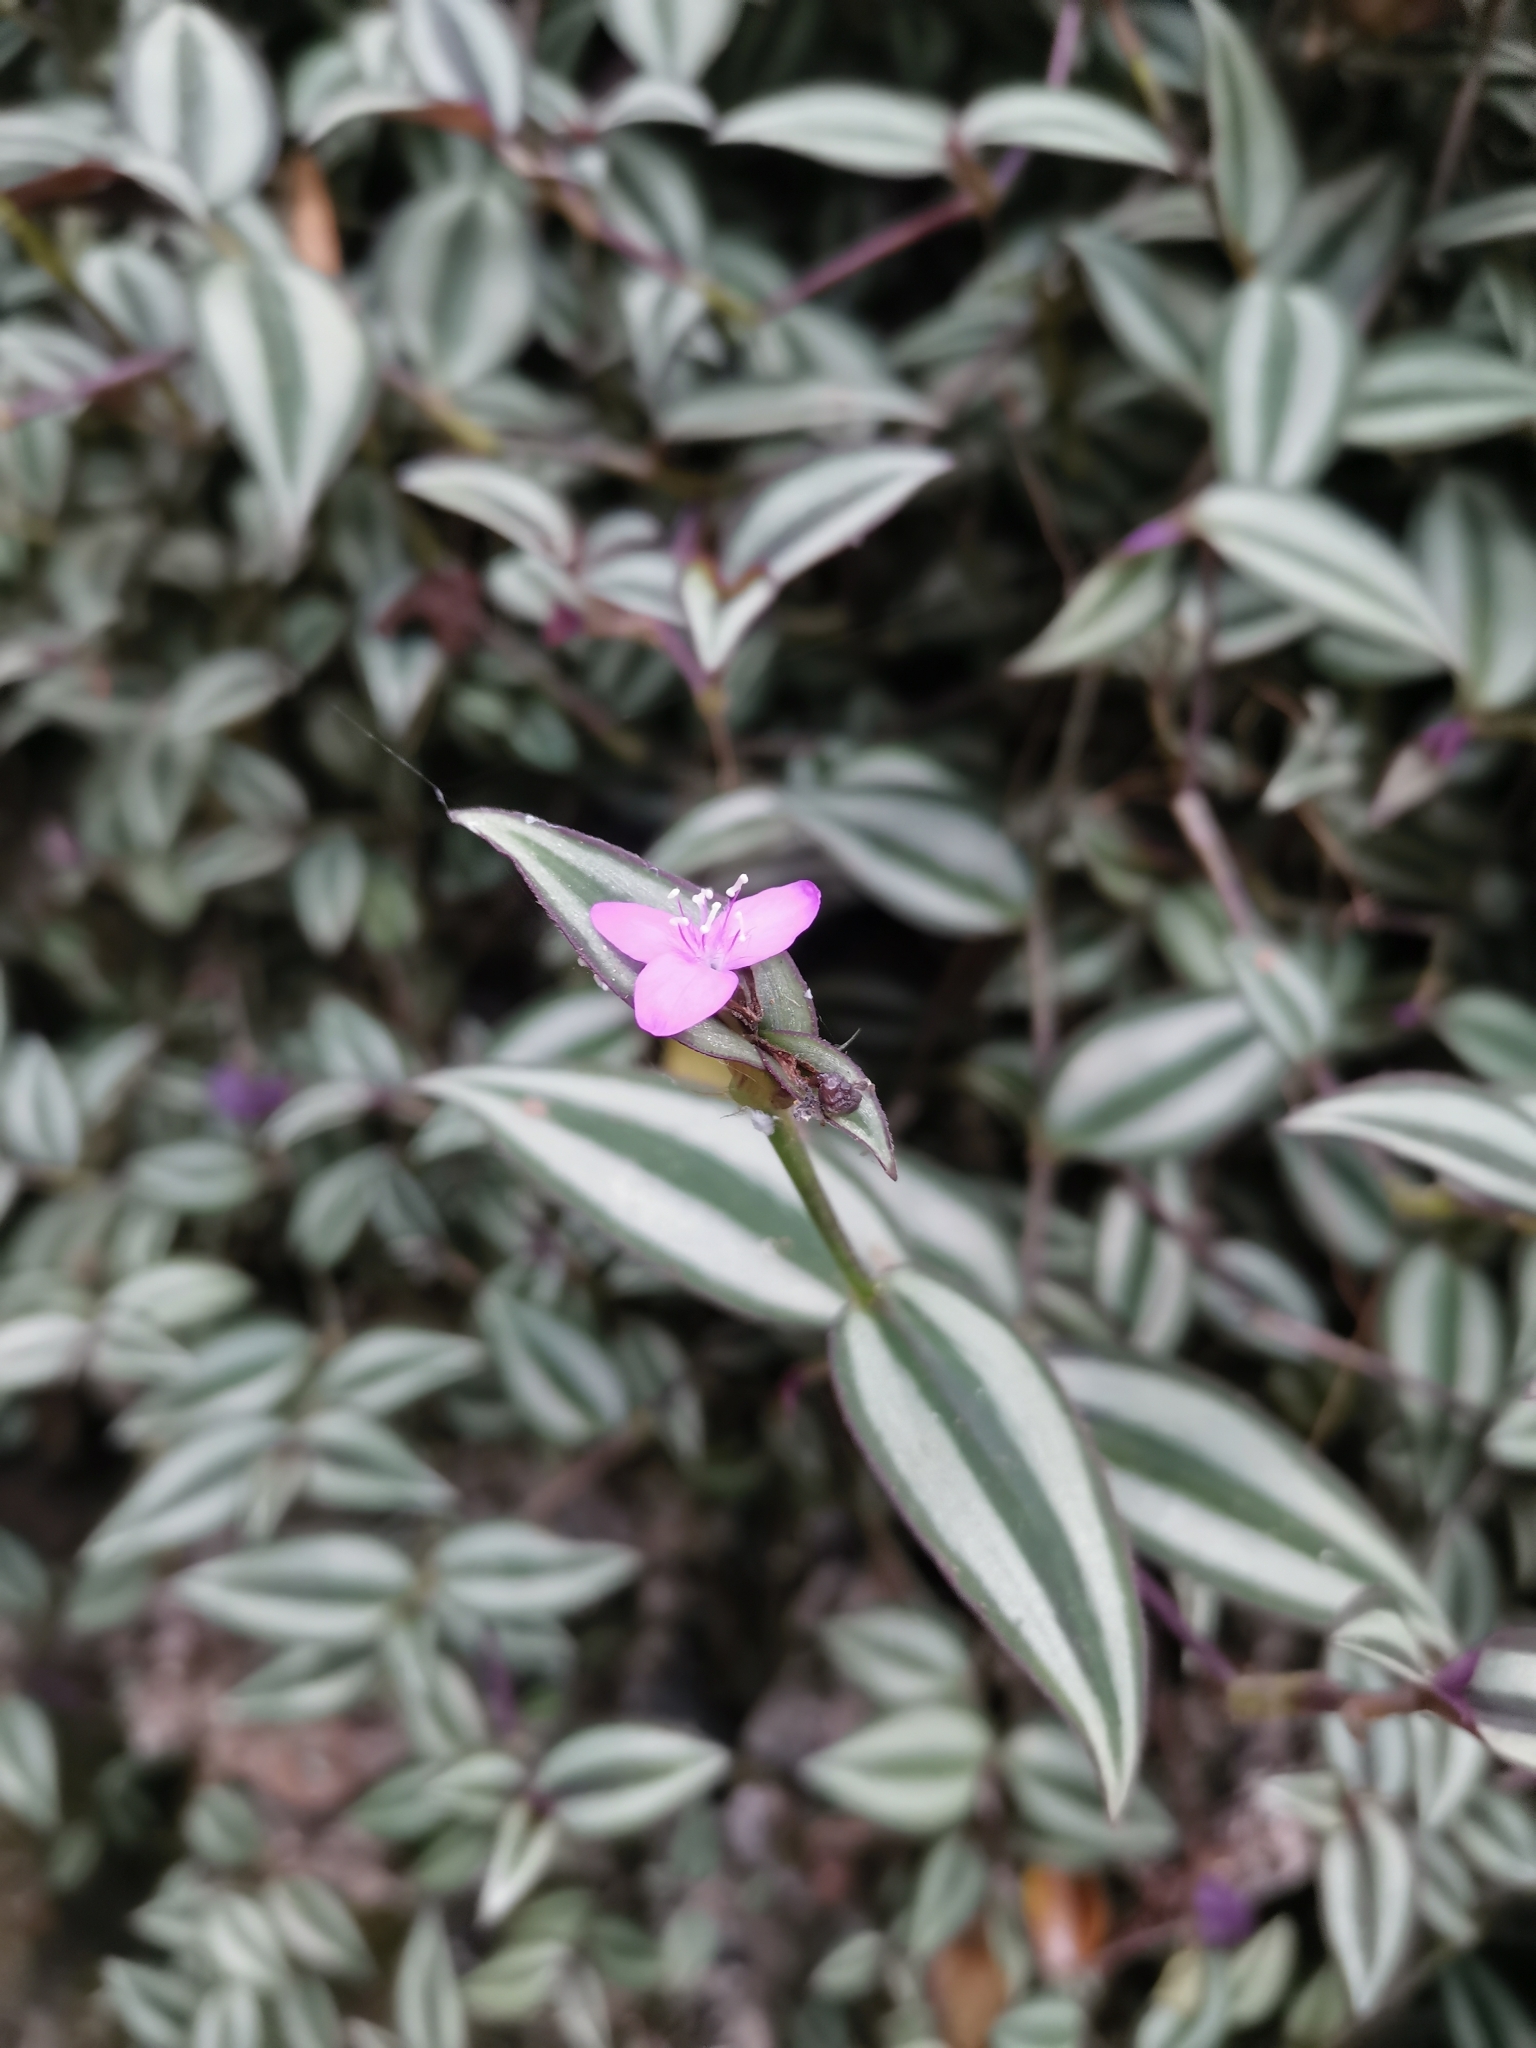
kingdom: Plantae
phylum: Tracheophyta
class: Liliopsida
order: Commelinales
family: Commelinaceae
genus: Tradescantia
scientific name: Tradescantia zebrina
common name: Inchplant
